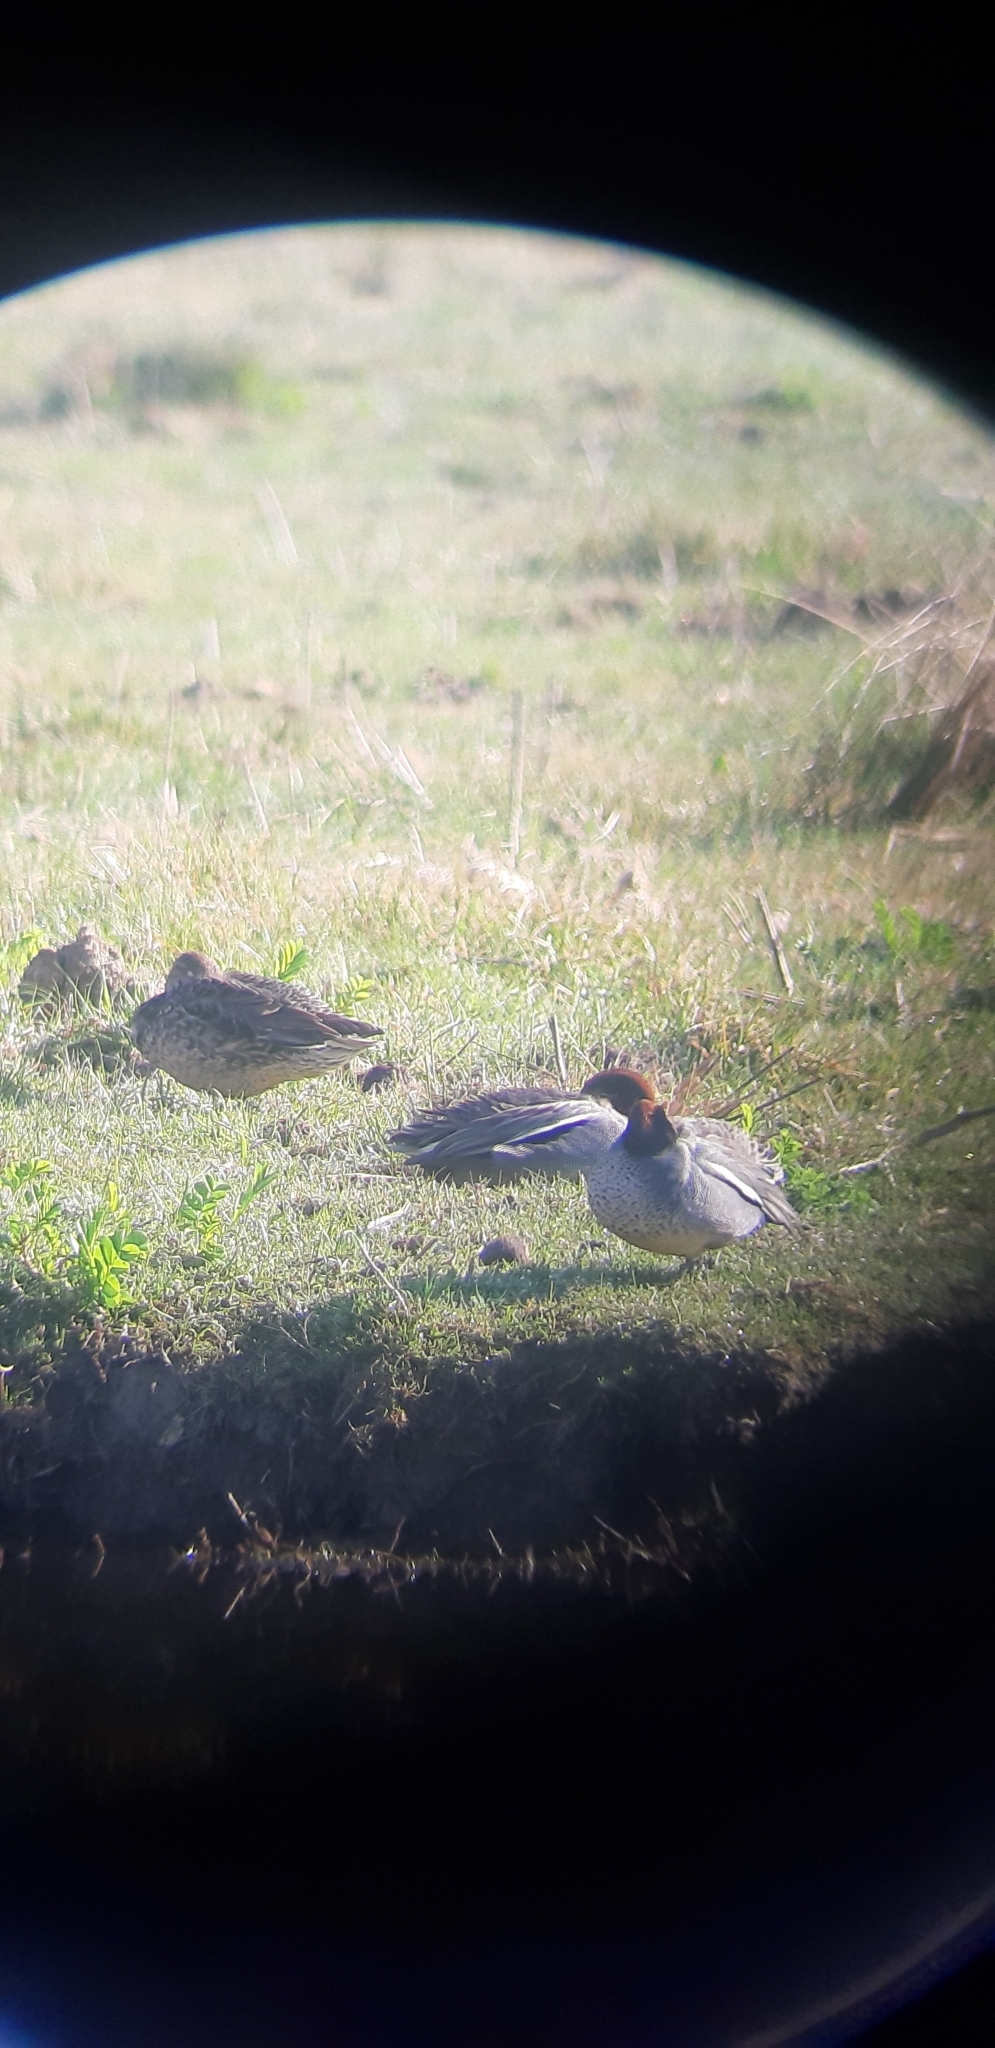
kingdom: Animalia
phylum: Chordata
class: Aves
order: Anseriformes
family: Anatidae
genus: Anas
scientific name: Anas crecca
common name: Eurasian teal
